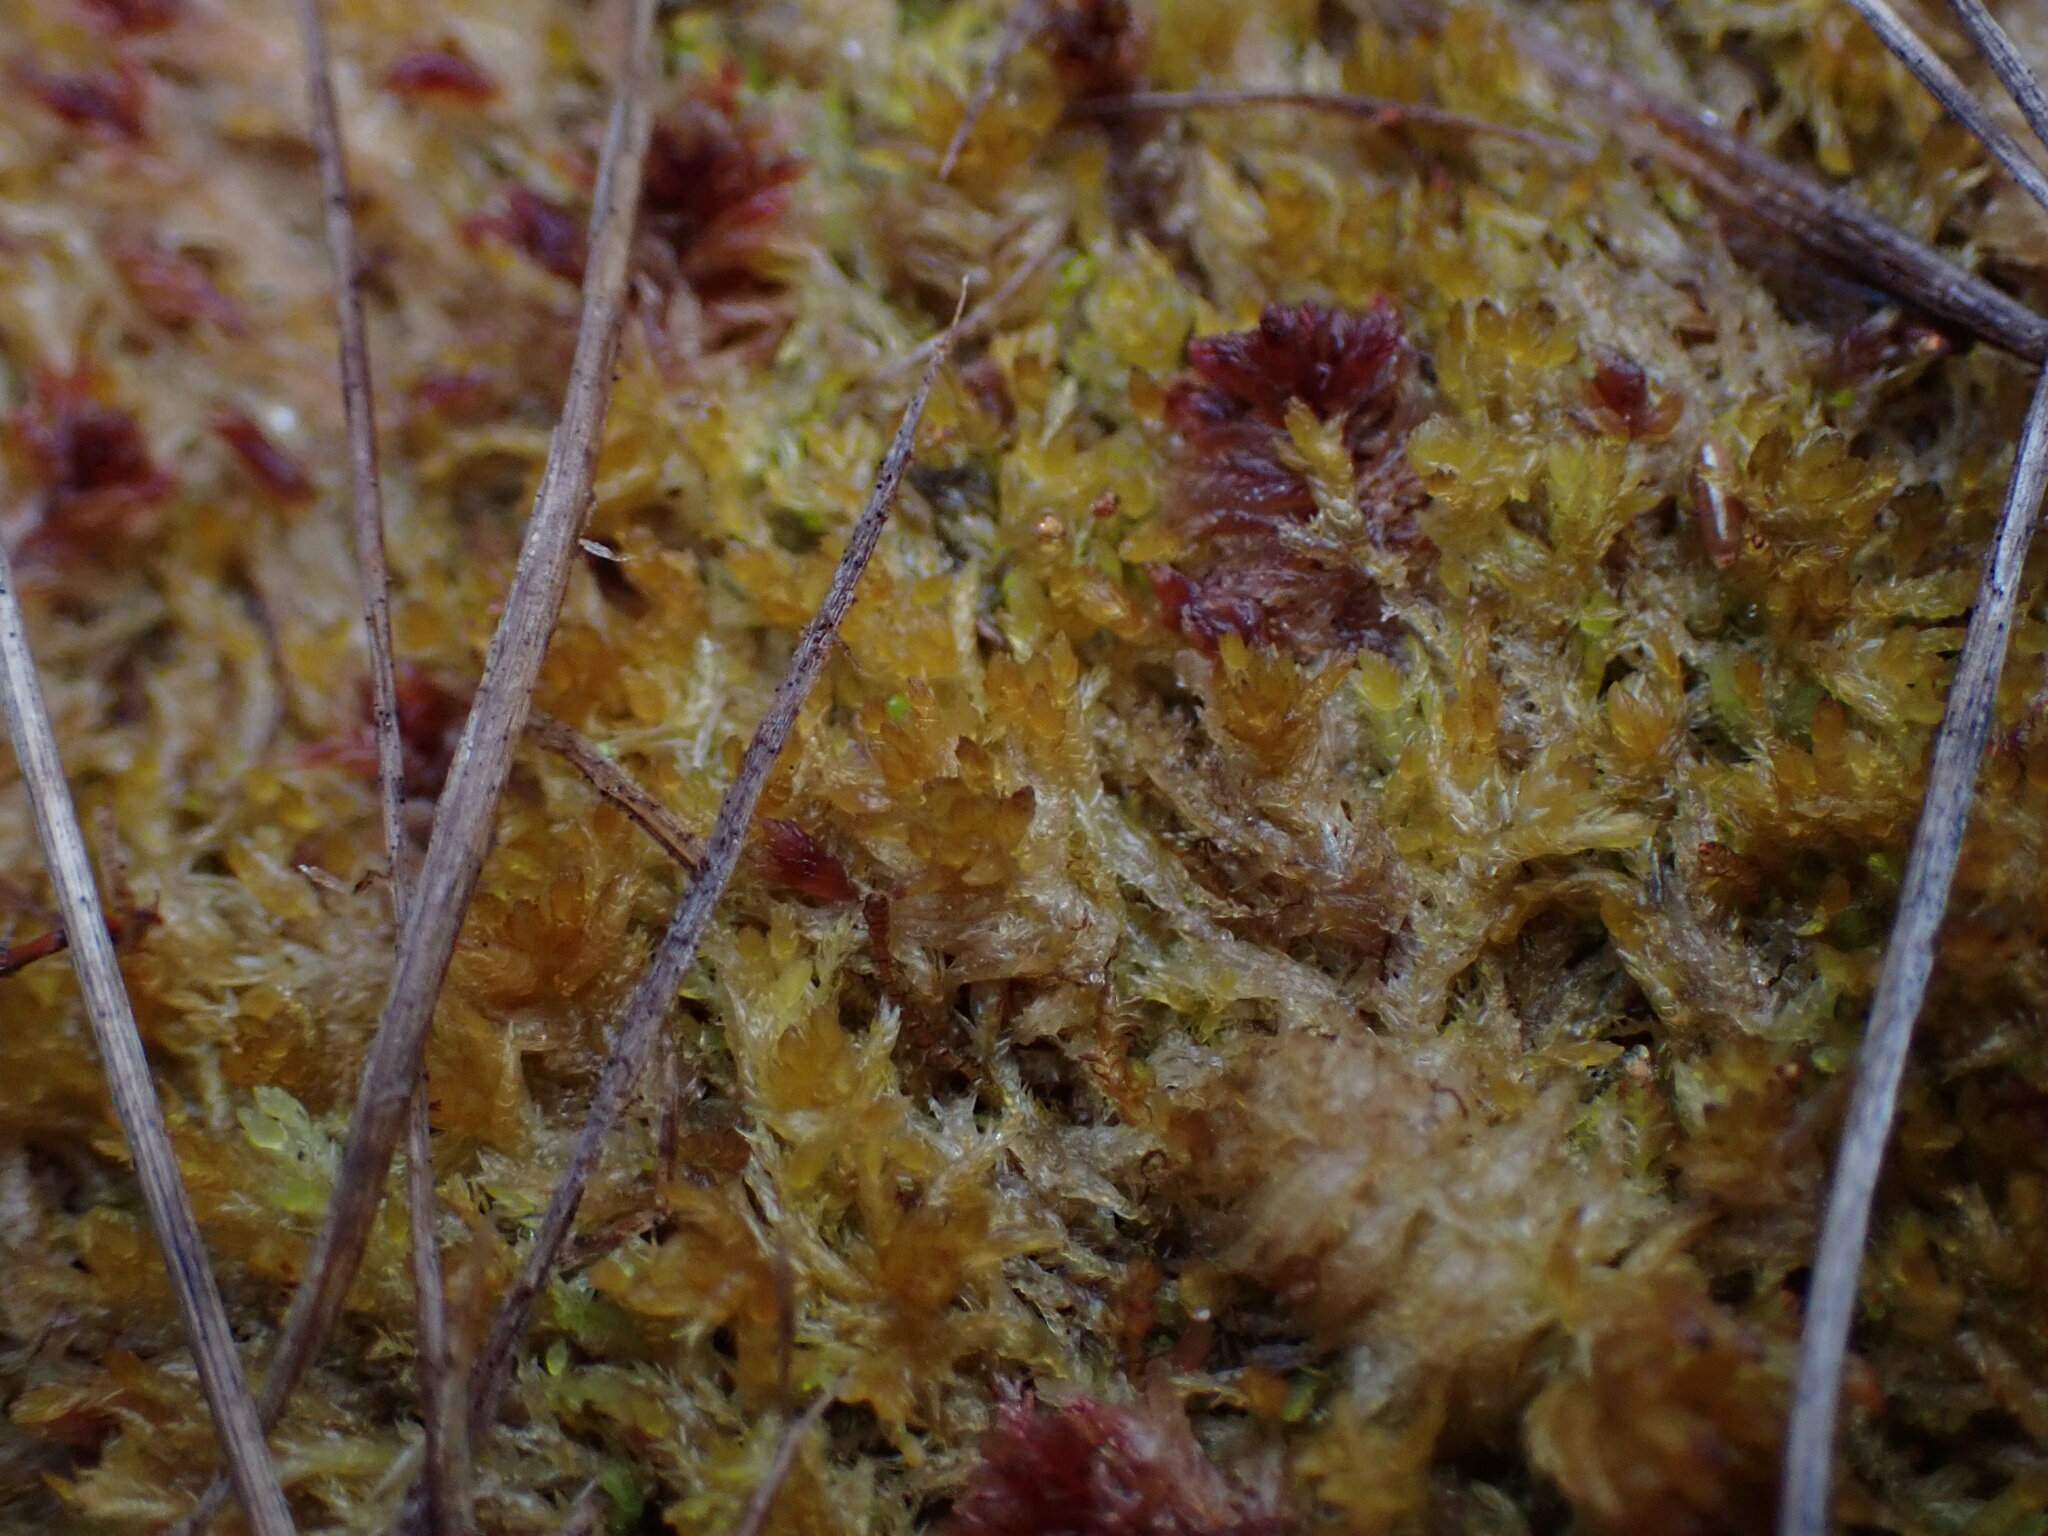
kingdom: Plantae
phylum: Bryophyta
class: Sphagnopsida
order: Sphagnales
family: Sphagnaceae
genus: Sphagnum
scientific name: Sphagnum tenellum
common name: Soft bog-moss
